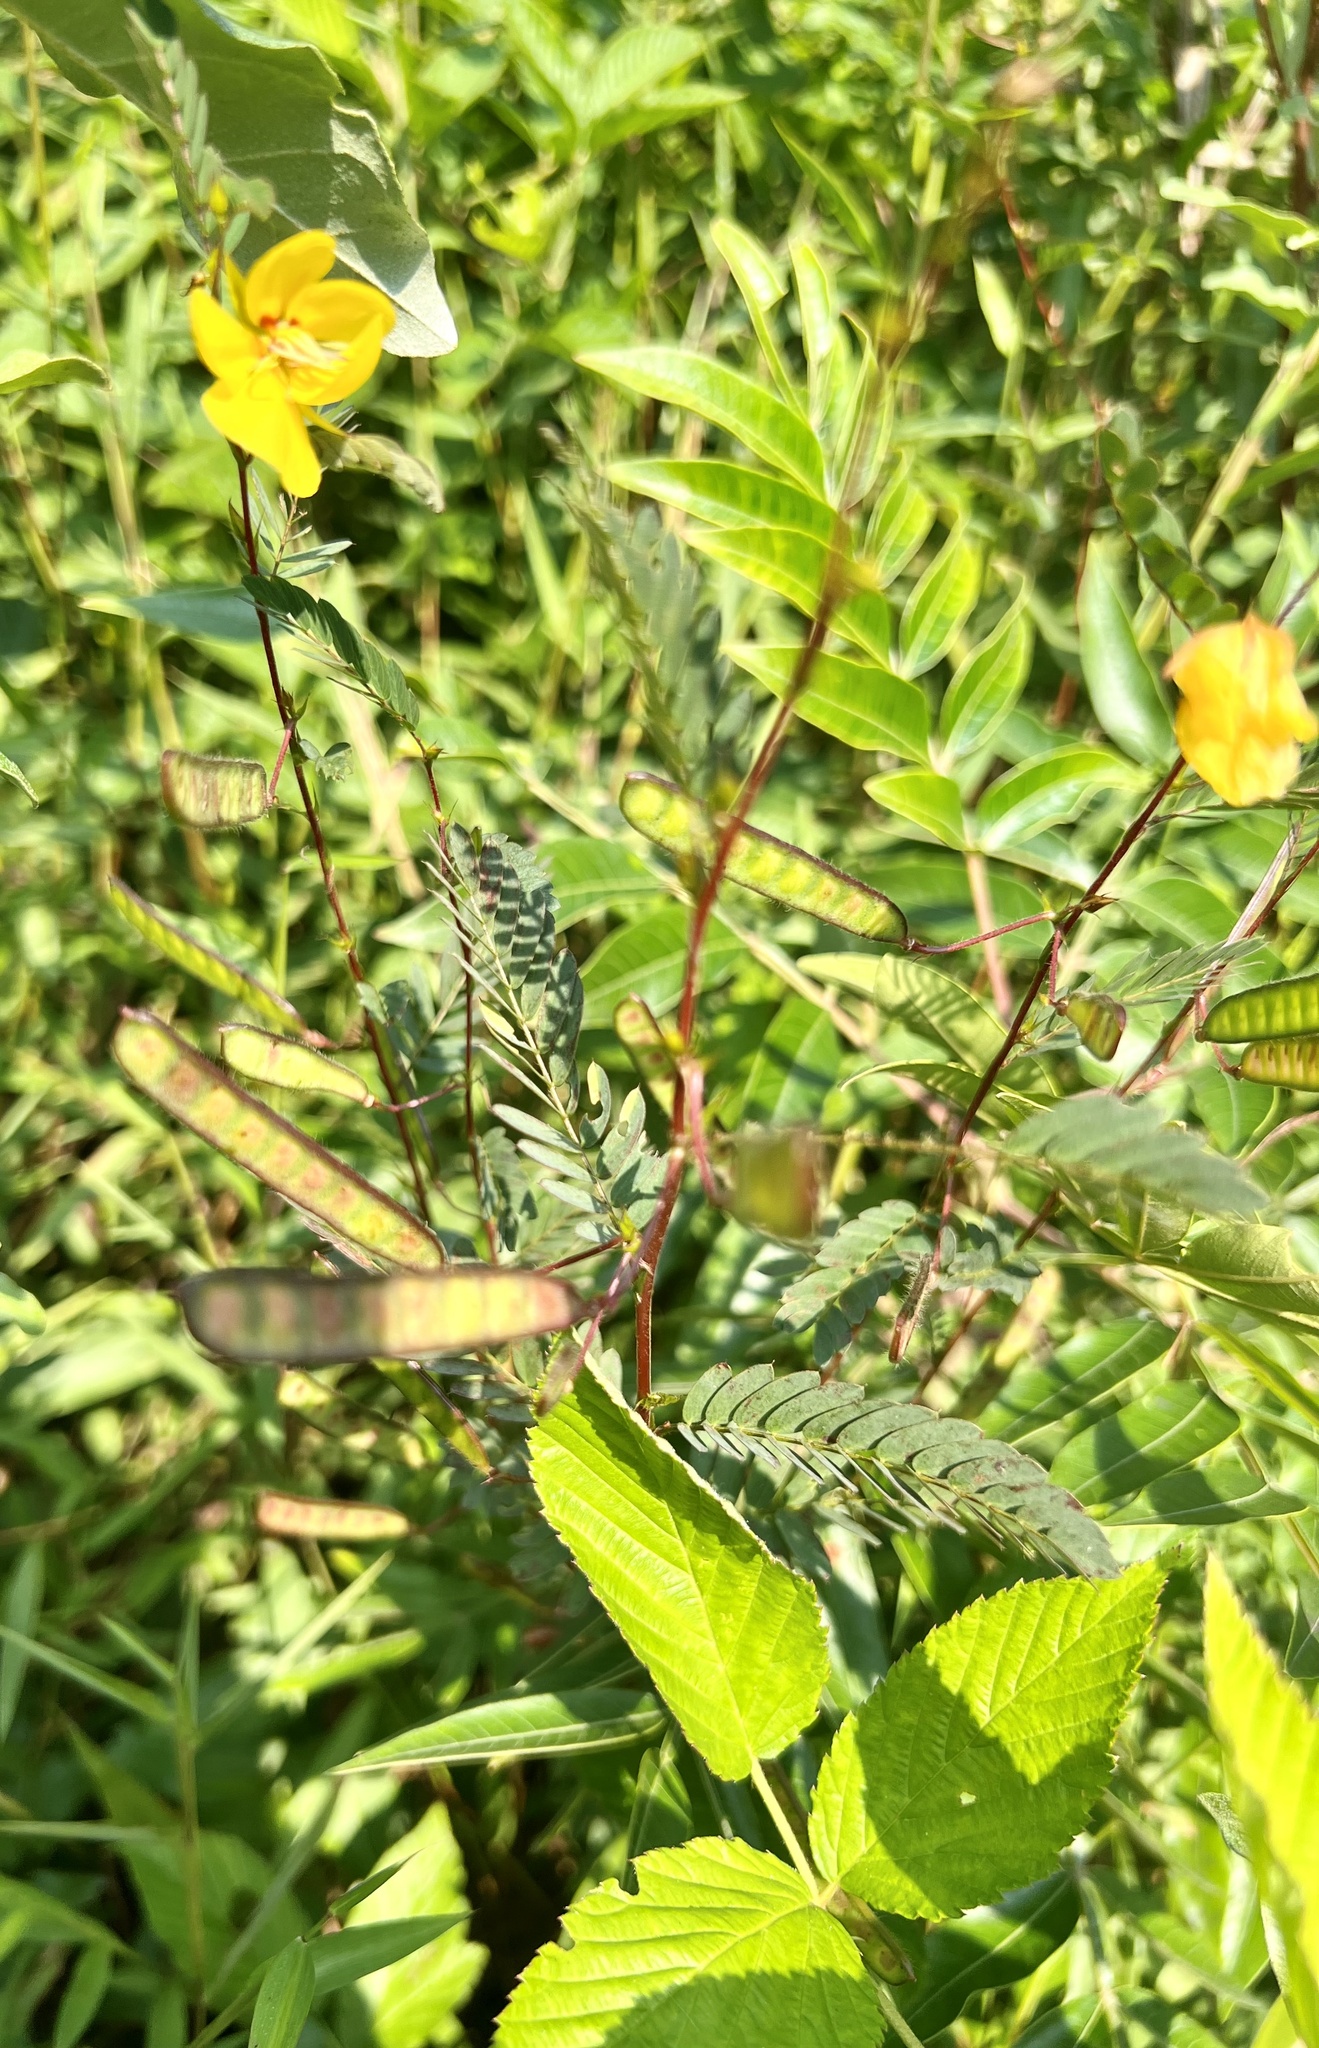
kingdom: Plantae
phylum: Tracheophyta
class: Magnoliopsida
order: Fabales
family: Fabaceae
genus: Chamaecrista
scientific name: Chamaecrista fasciculata
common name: Golden cassia
